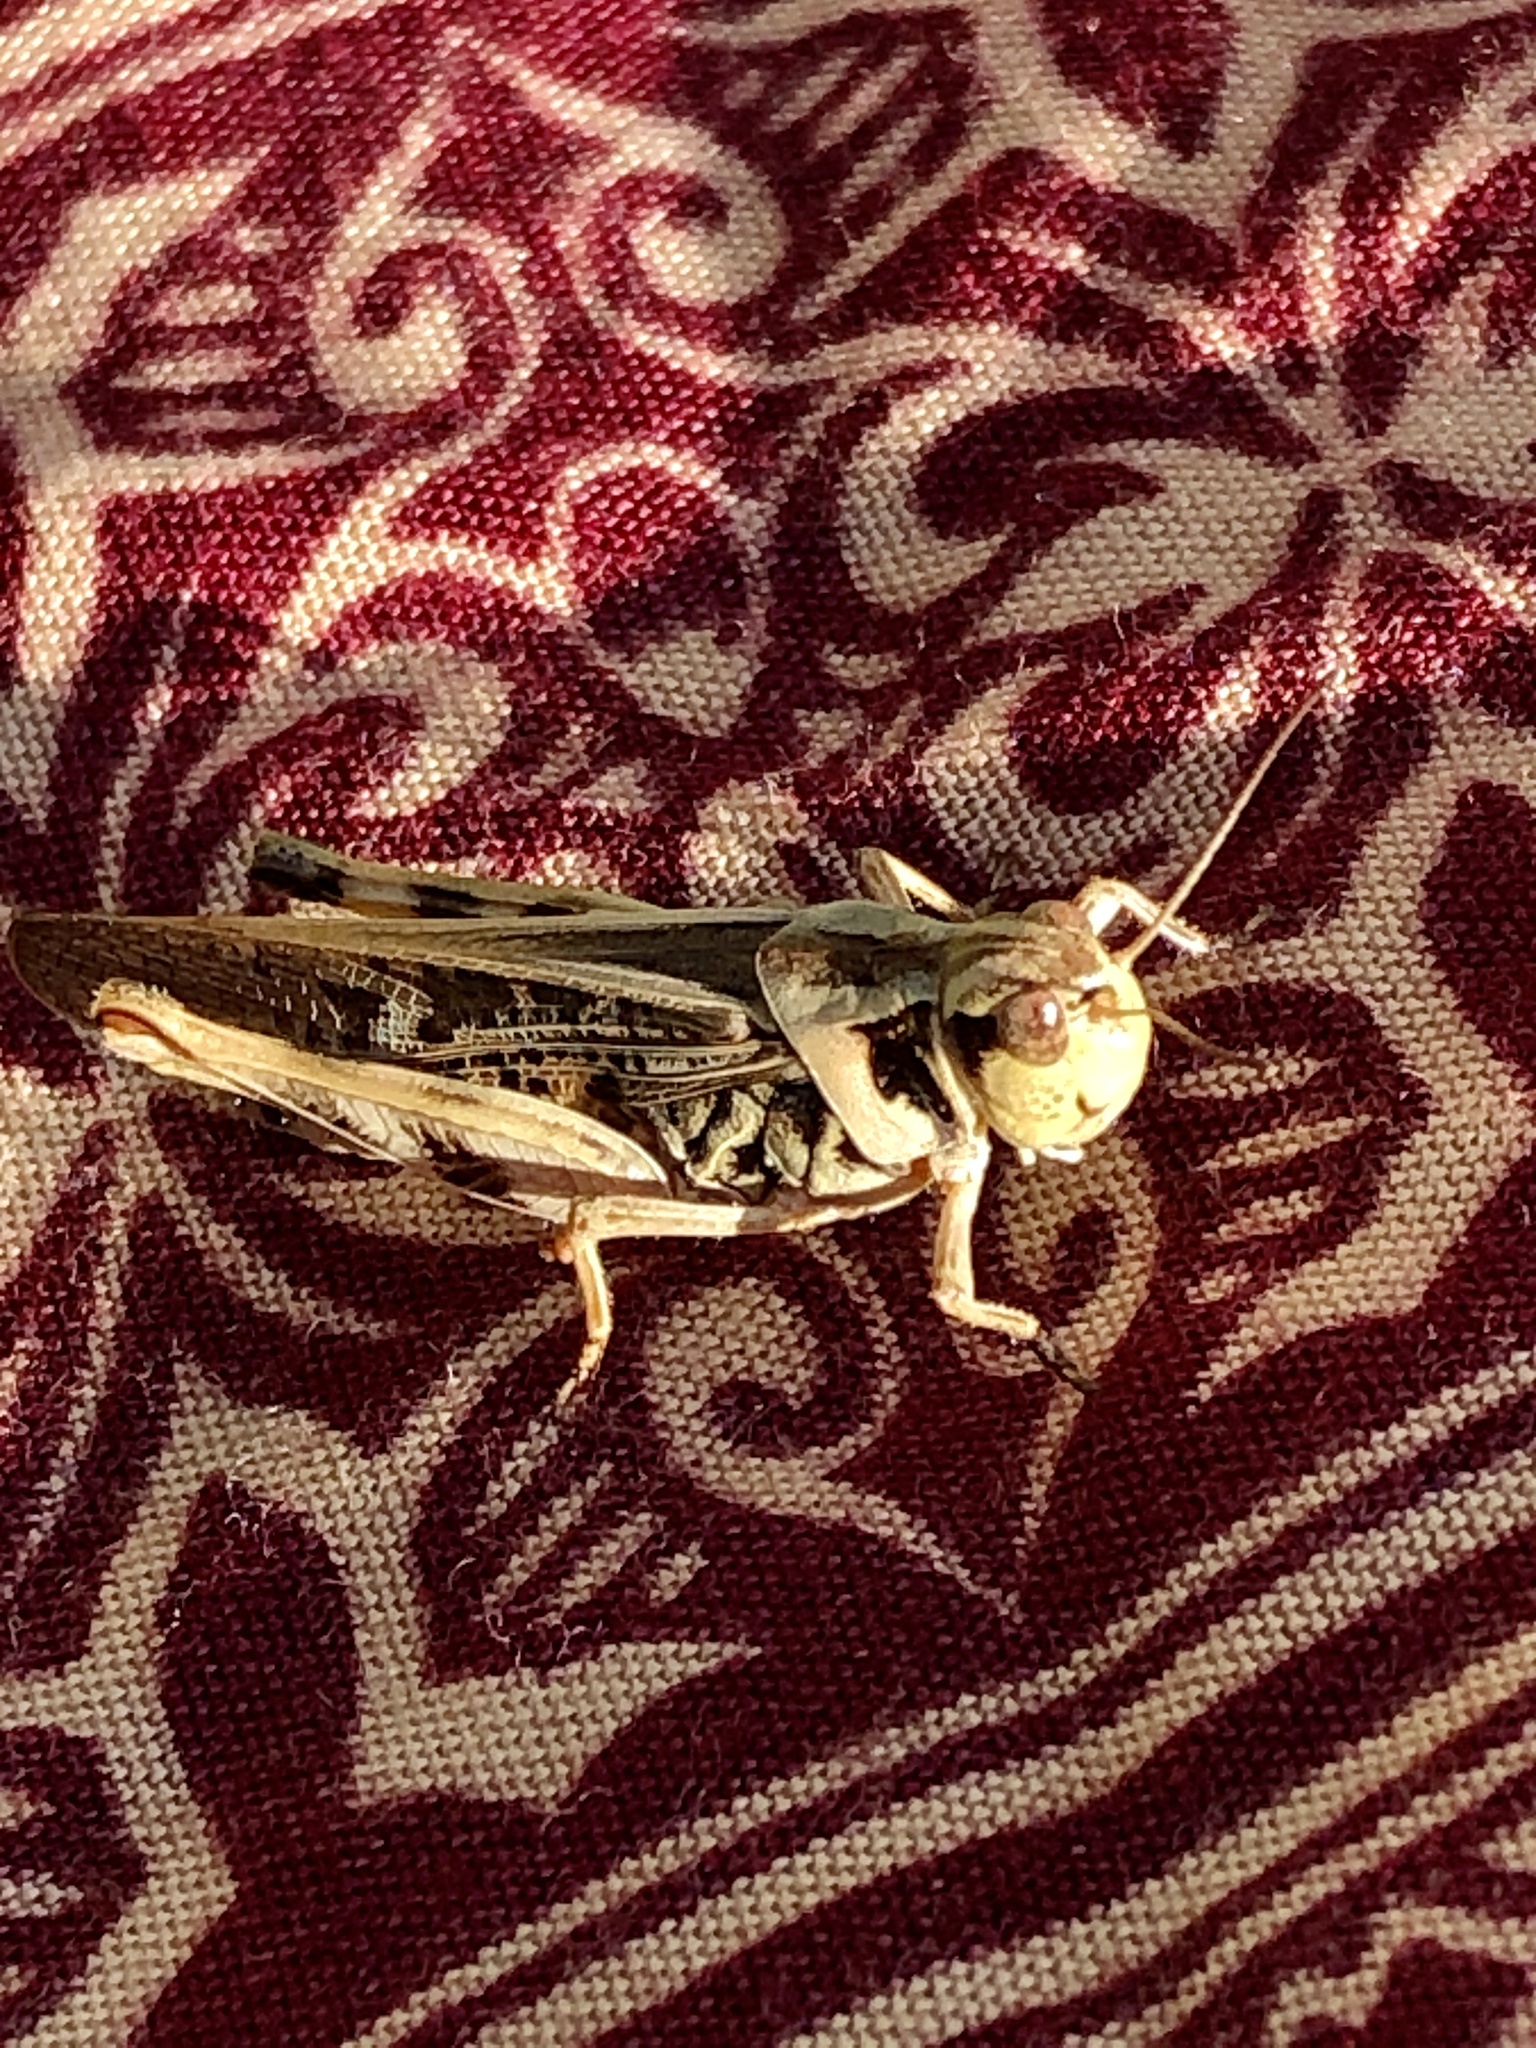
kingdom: Animalia
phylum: Arthropoda
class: Insecta
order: Orthoptera
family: Acrididae
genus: Camnula
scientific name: Camnula pellucida
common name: Clear-winged grasshopper
